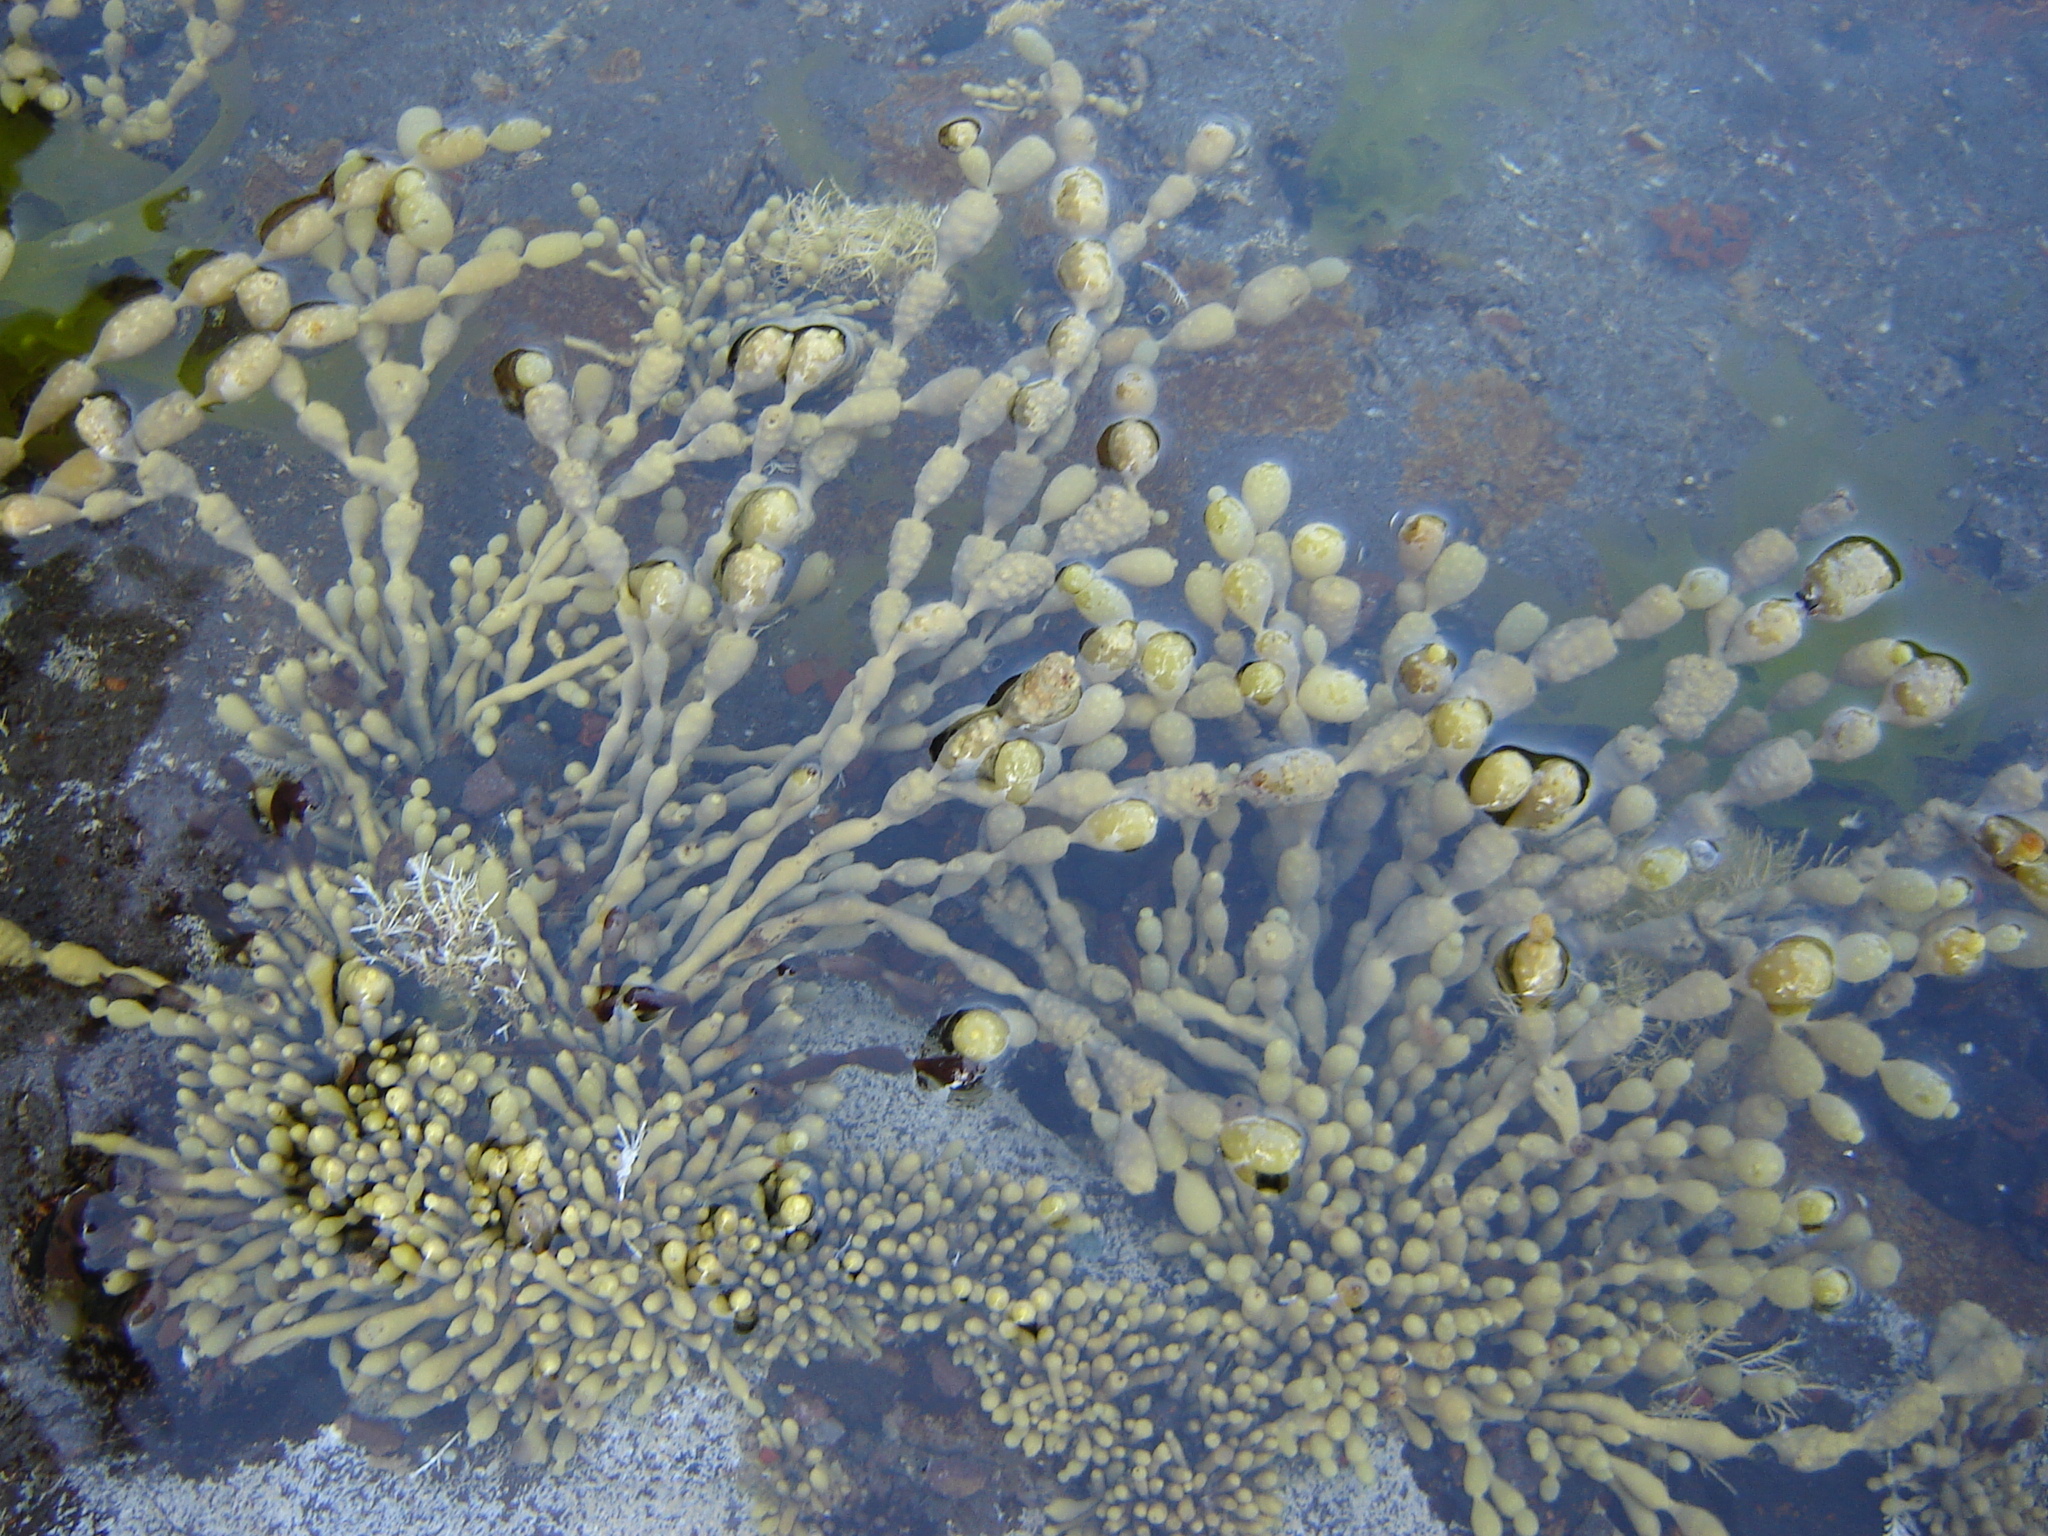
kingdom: Chromista
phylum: Ochrophyta
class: Phaeophyceae
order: Fucales
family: Hormosiraceae
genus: Hormosira
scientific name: Hormosira banksii
